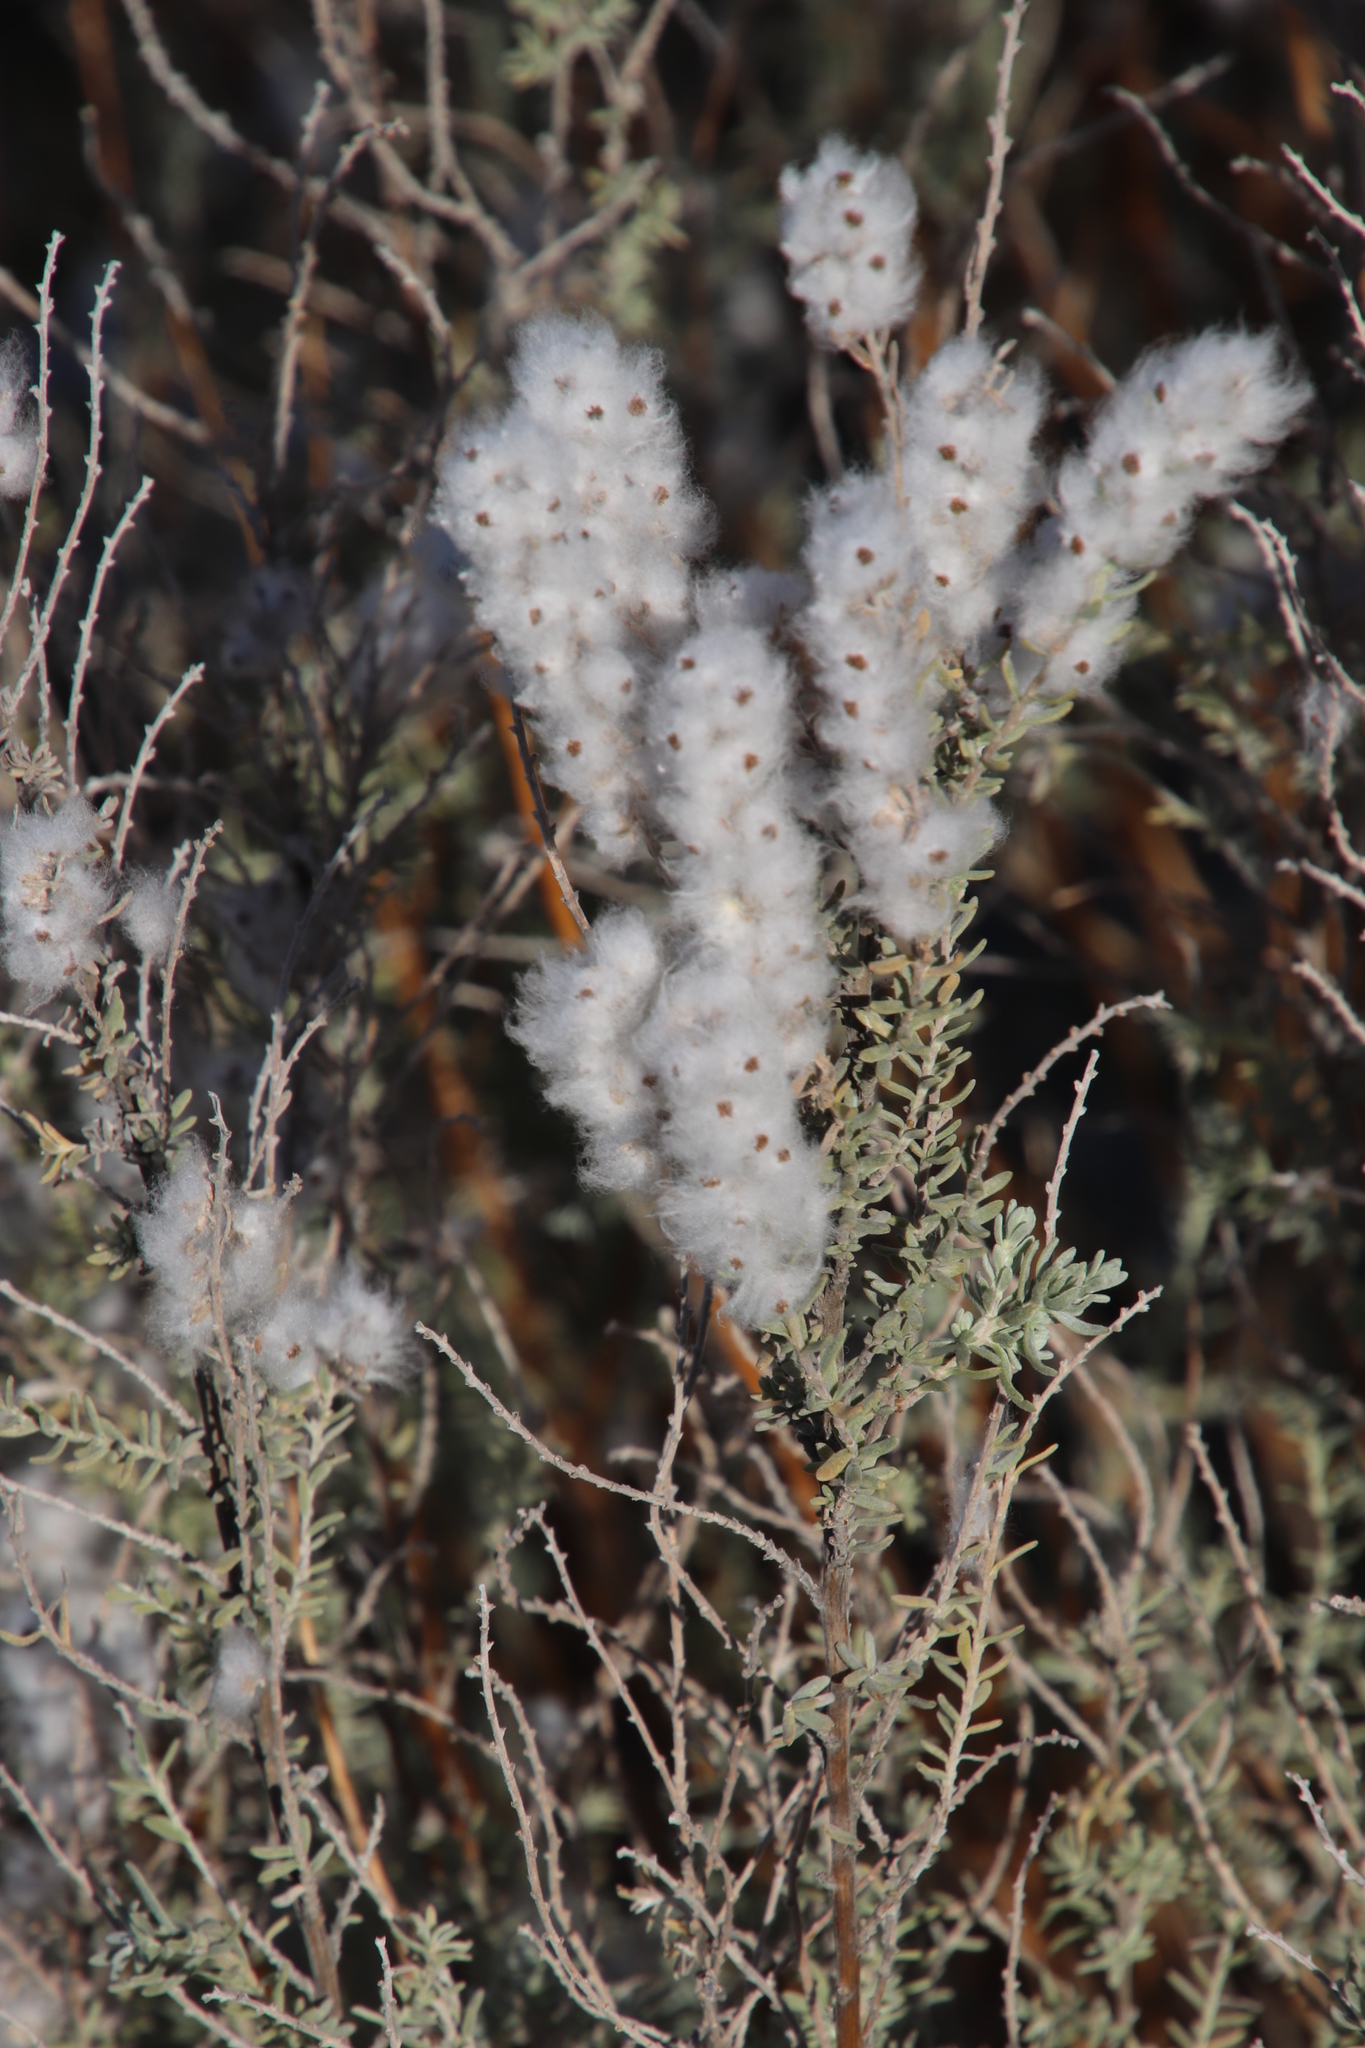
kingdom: Plantae
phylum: Tracheophyta
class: Magnoliopsida
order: Asterales
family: Asteraceae
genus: Eriocephalus
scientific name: Eriocephalus racemosus
